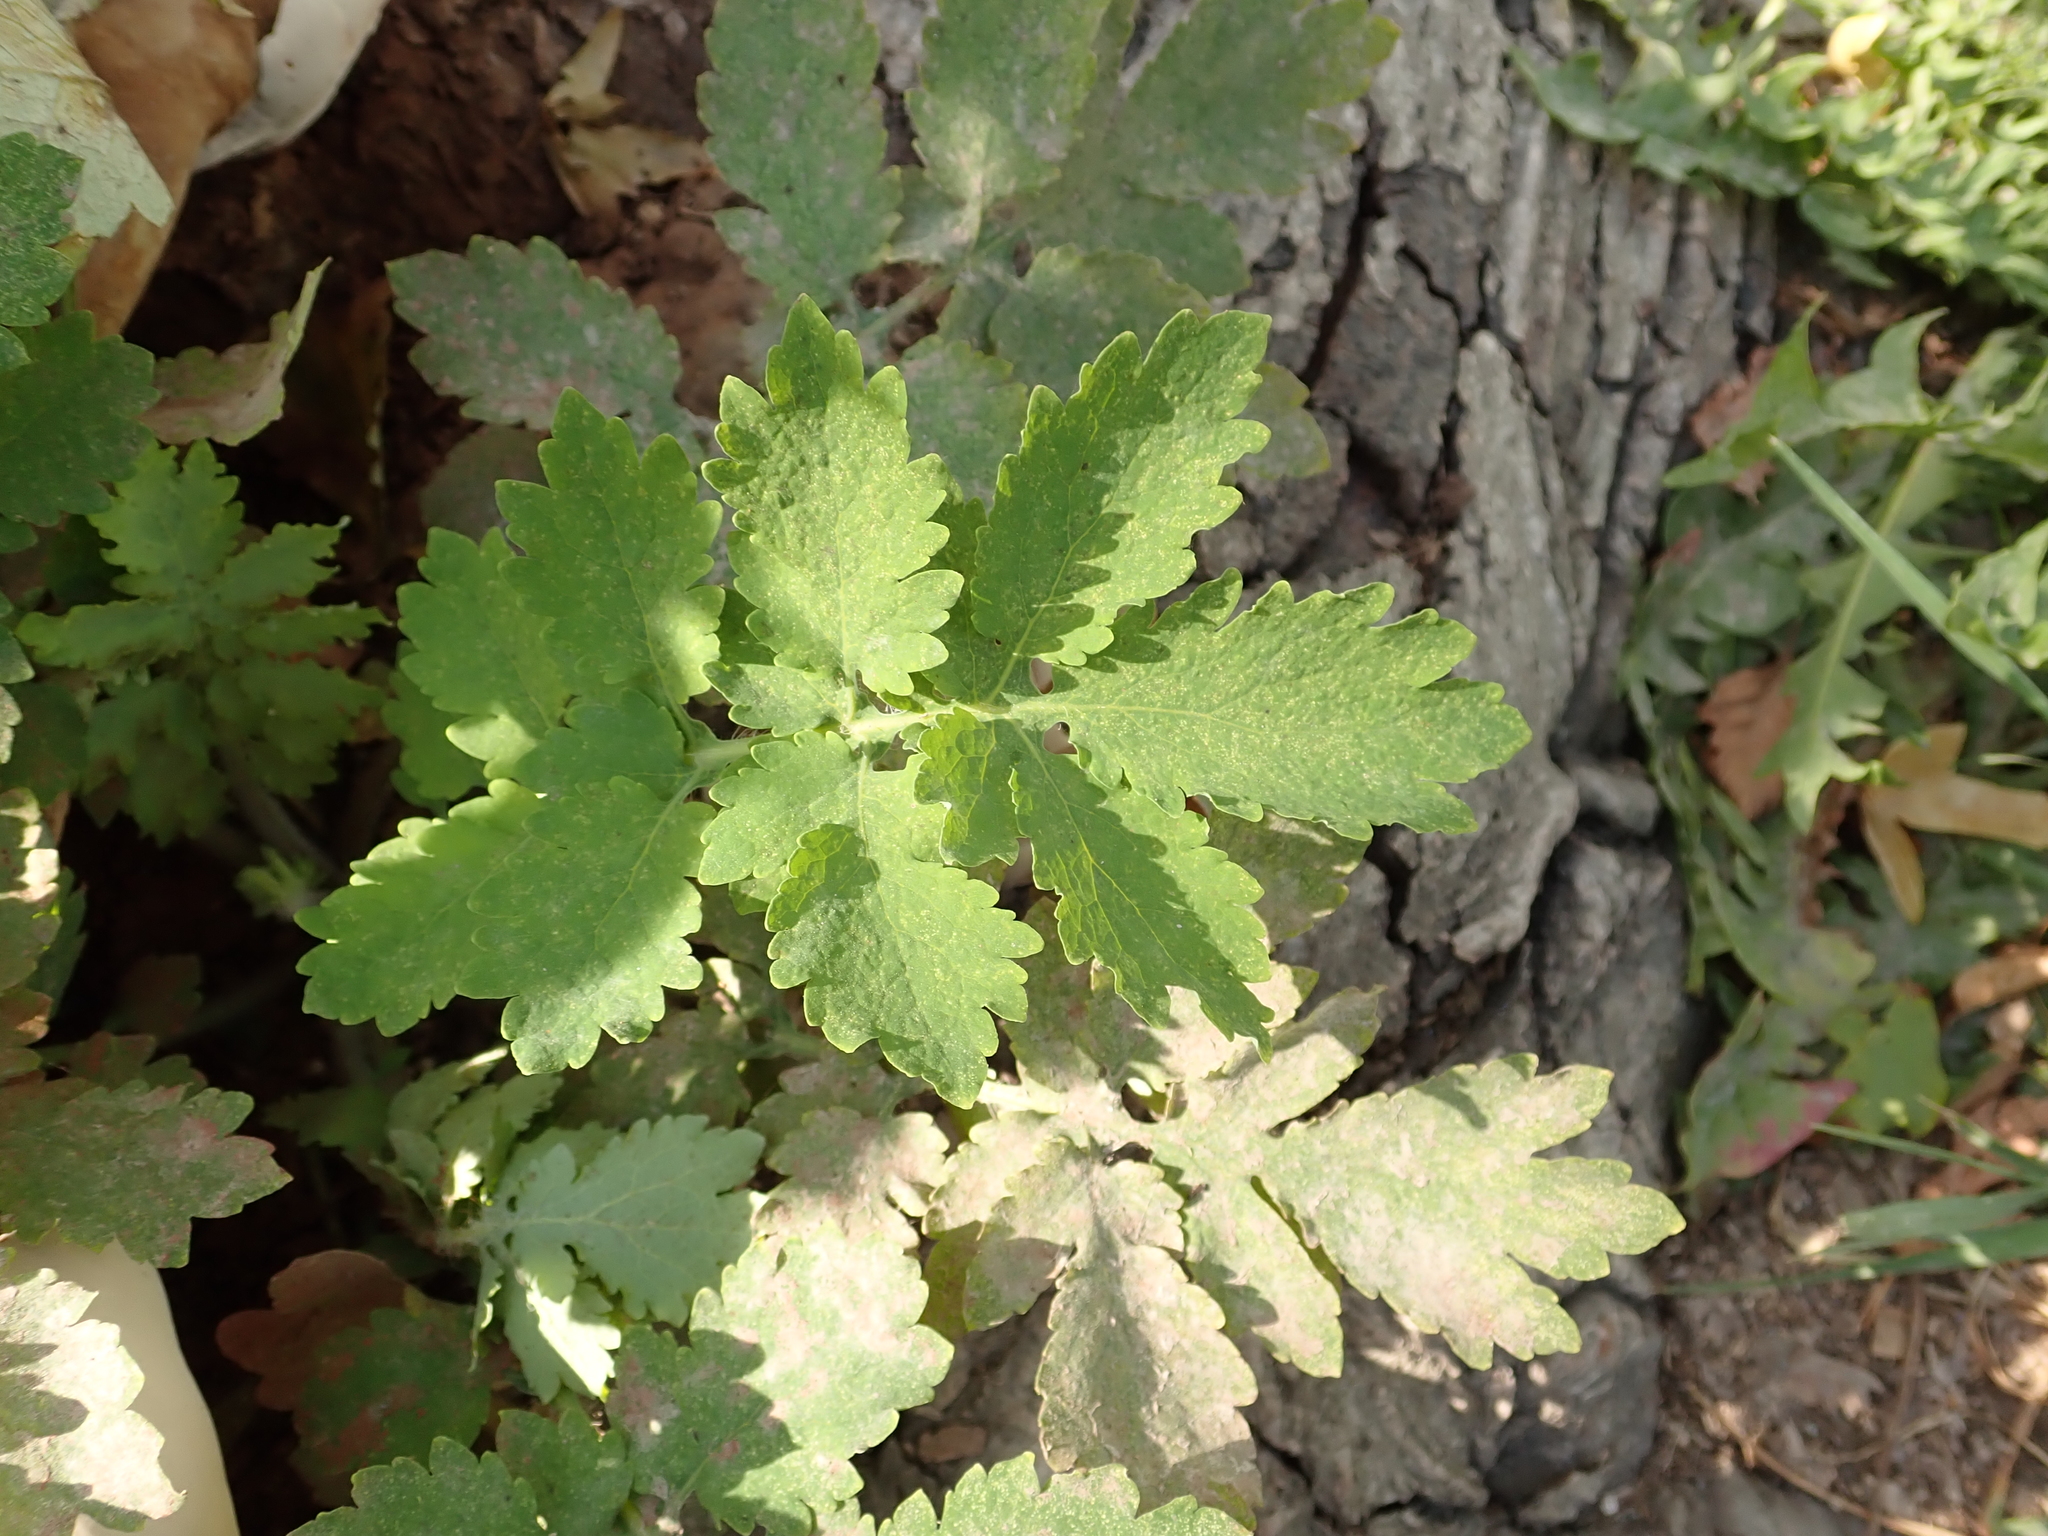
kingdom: Plantae
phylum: Tracheophyta
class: Magnoliopsida
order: Ranunculales
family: Papaveraceae
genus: Chelidonium
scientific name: Chelidonium majus
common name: Greater celandine
